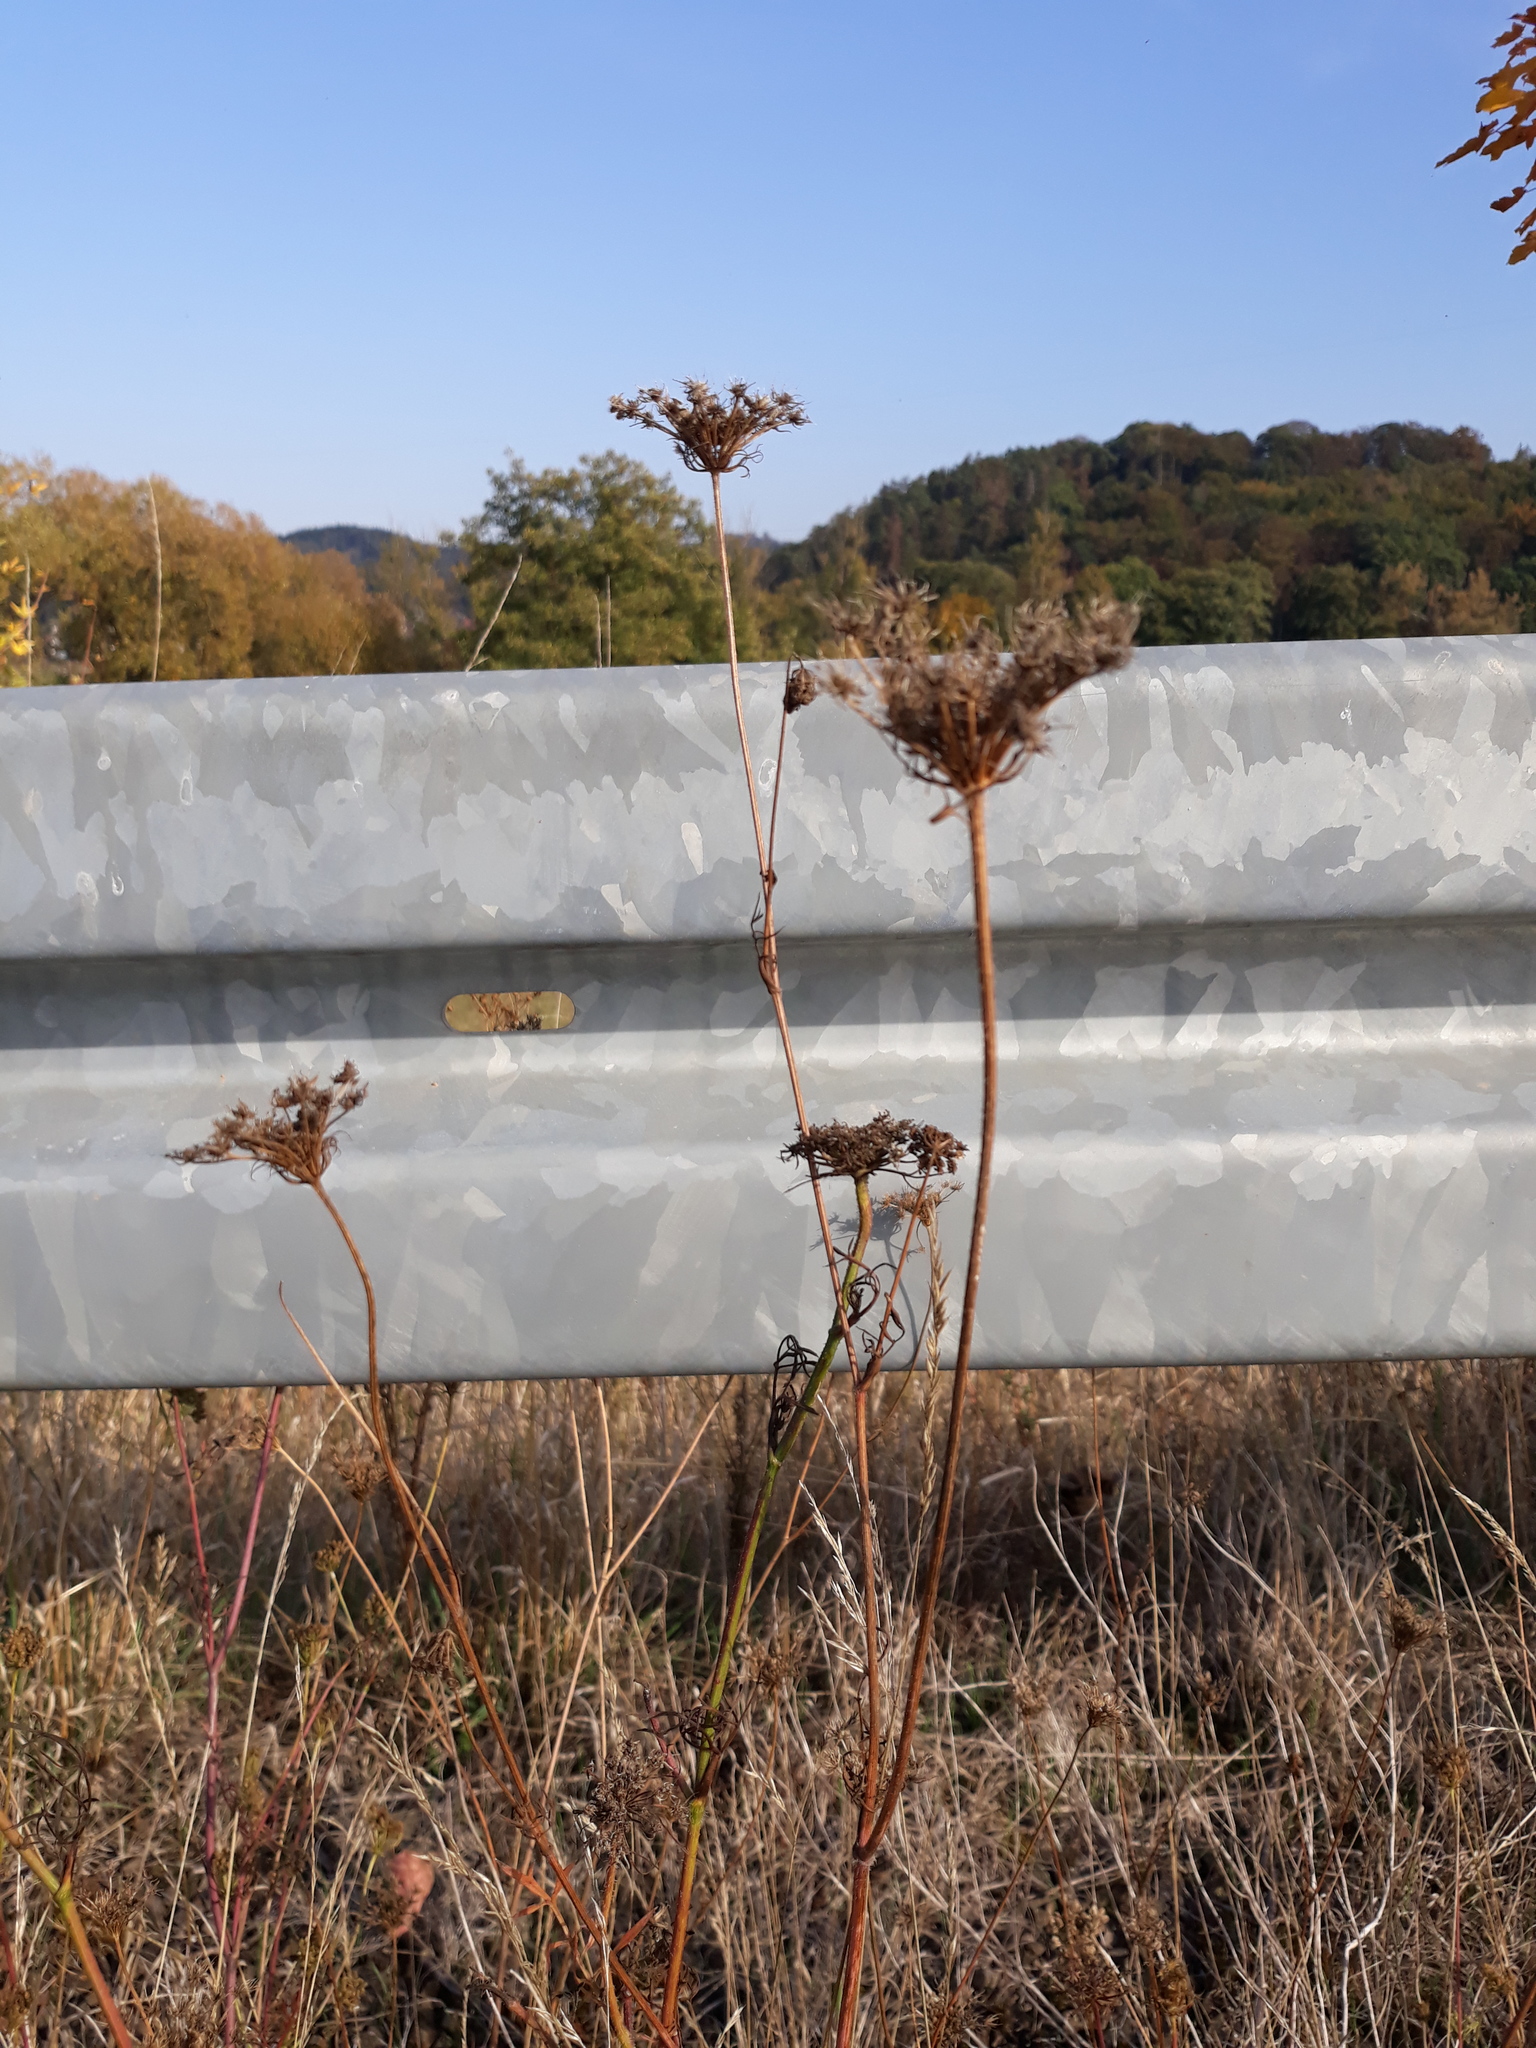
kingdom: Plantae
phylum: Tracheophyta
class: Magnoliopsida
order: Apiales
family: Apiaceae
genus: Daucus
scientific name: Daucus carota
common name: Wild carrot
